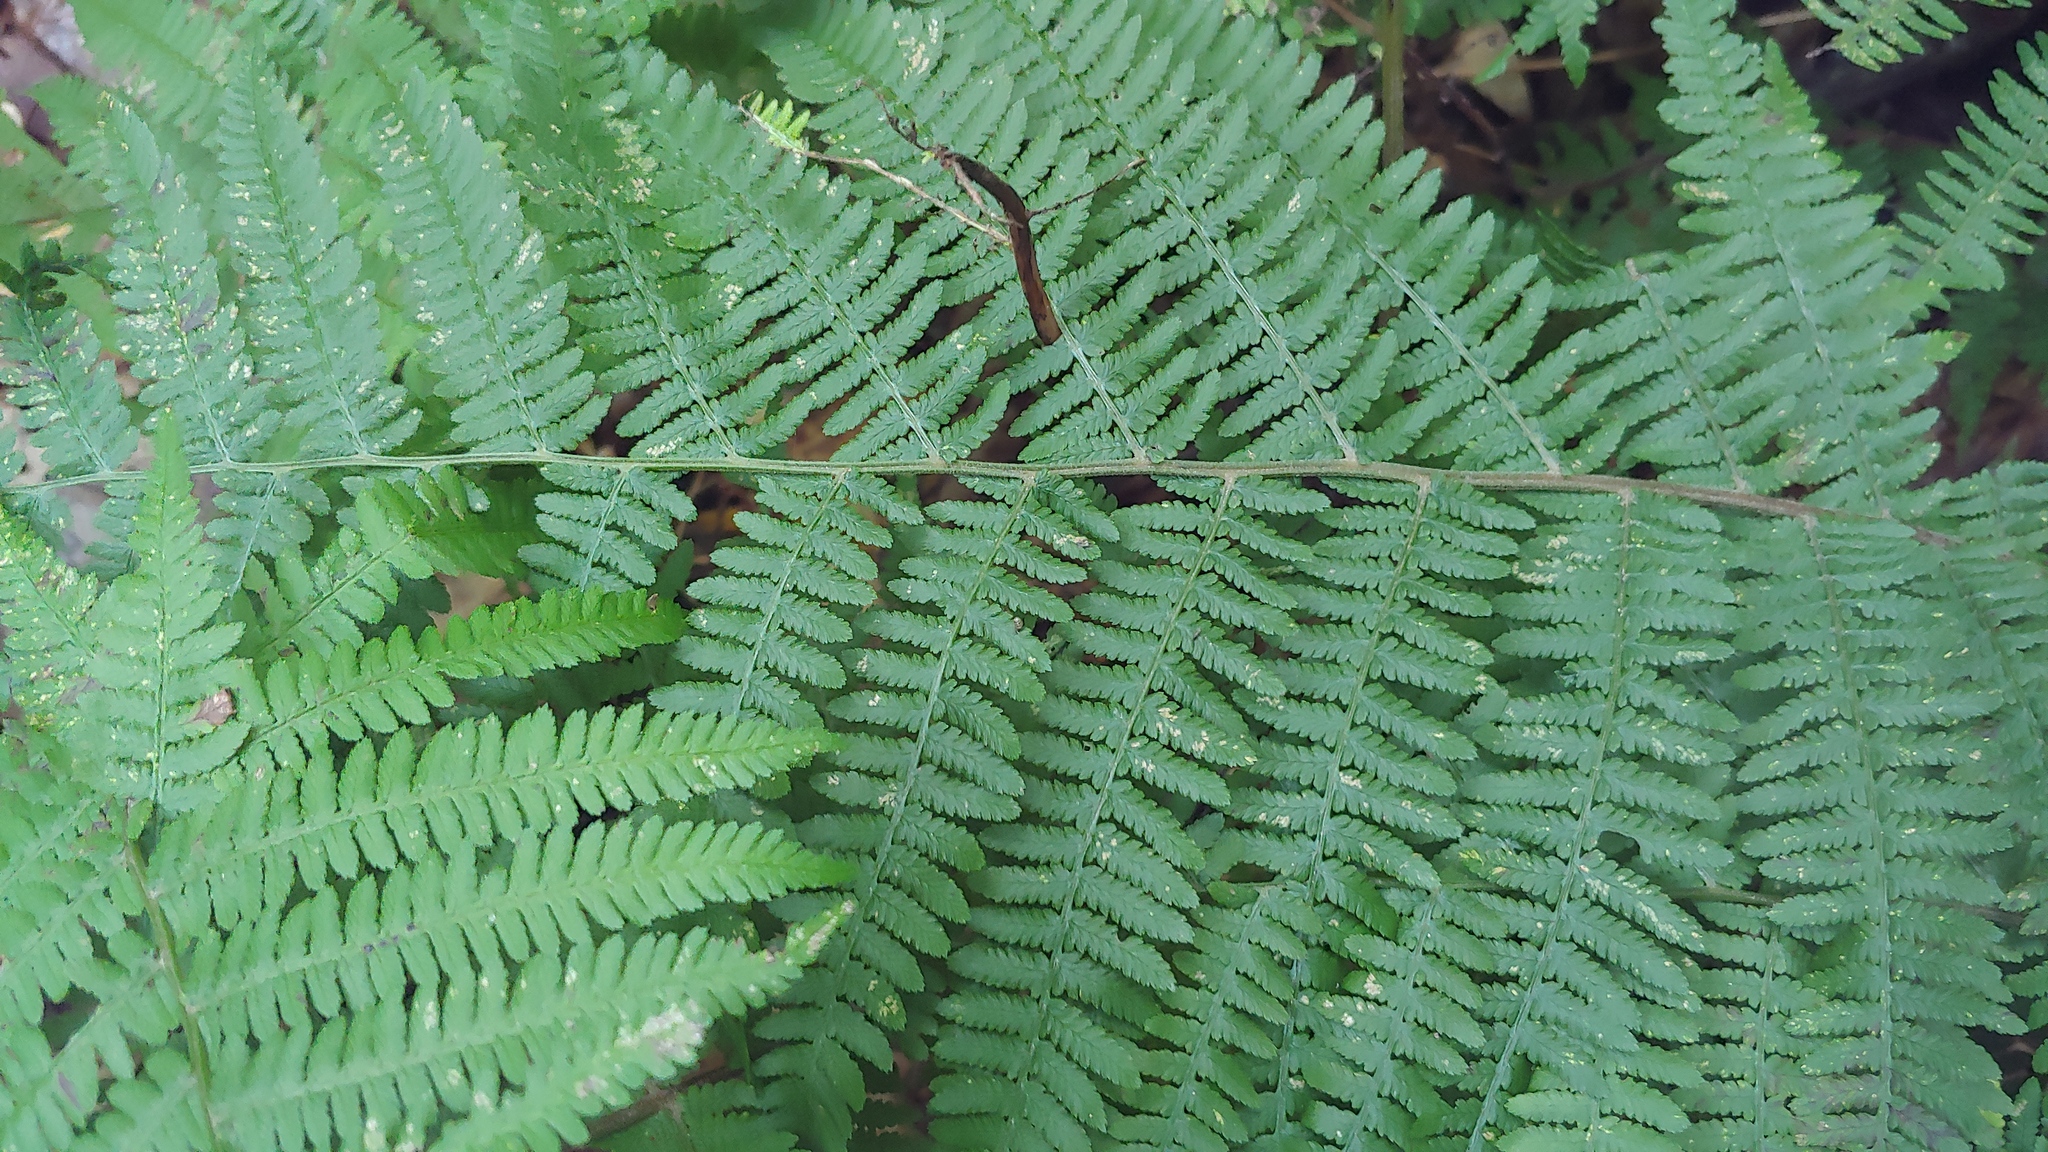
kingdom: Plantae
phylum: Tracheophyta
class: Polypodiopsida
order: Polypodiales
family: Athyriaceae
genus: Athyrium
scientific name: Athyrium angustum
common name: Northern lady fern
